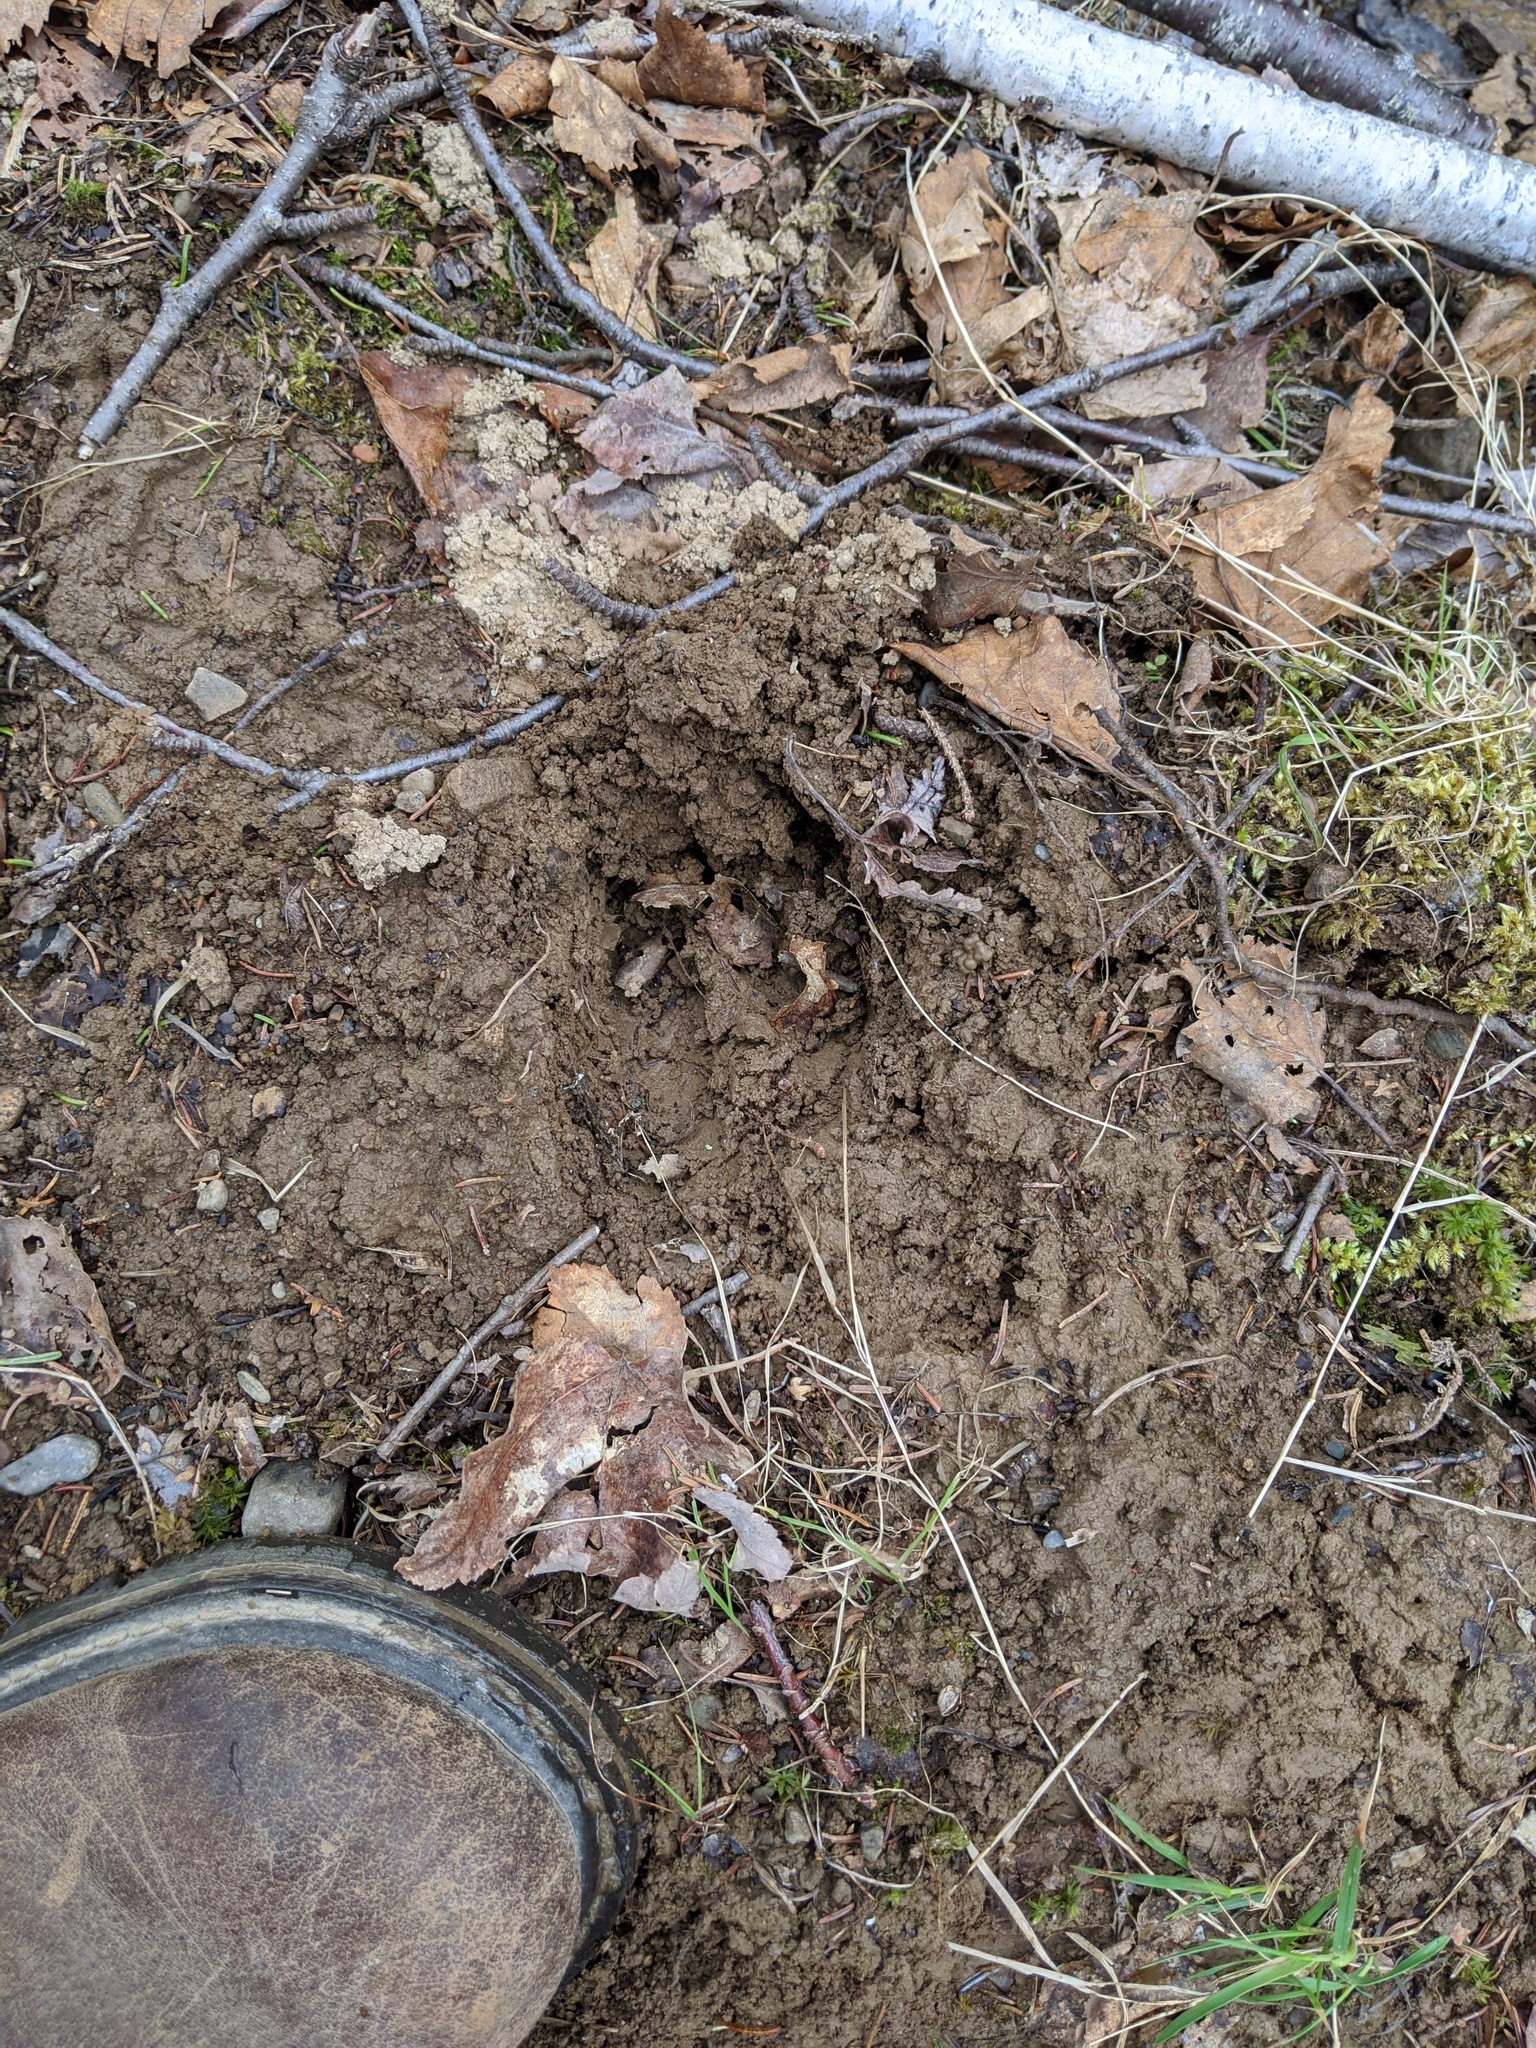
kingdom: Animalia
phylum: Chordata
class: Mammalia
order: Artiodactyla
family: Cervidae
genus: Odocoileus
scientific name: Odocoileus virginianus
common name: White-tailed deer
